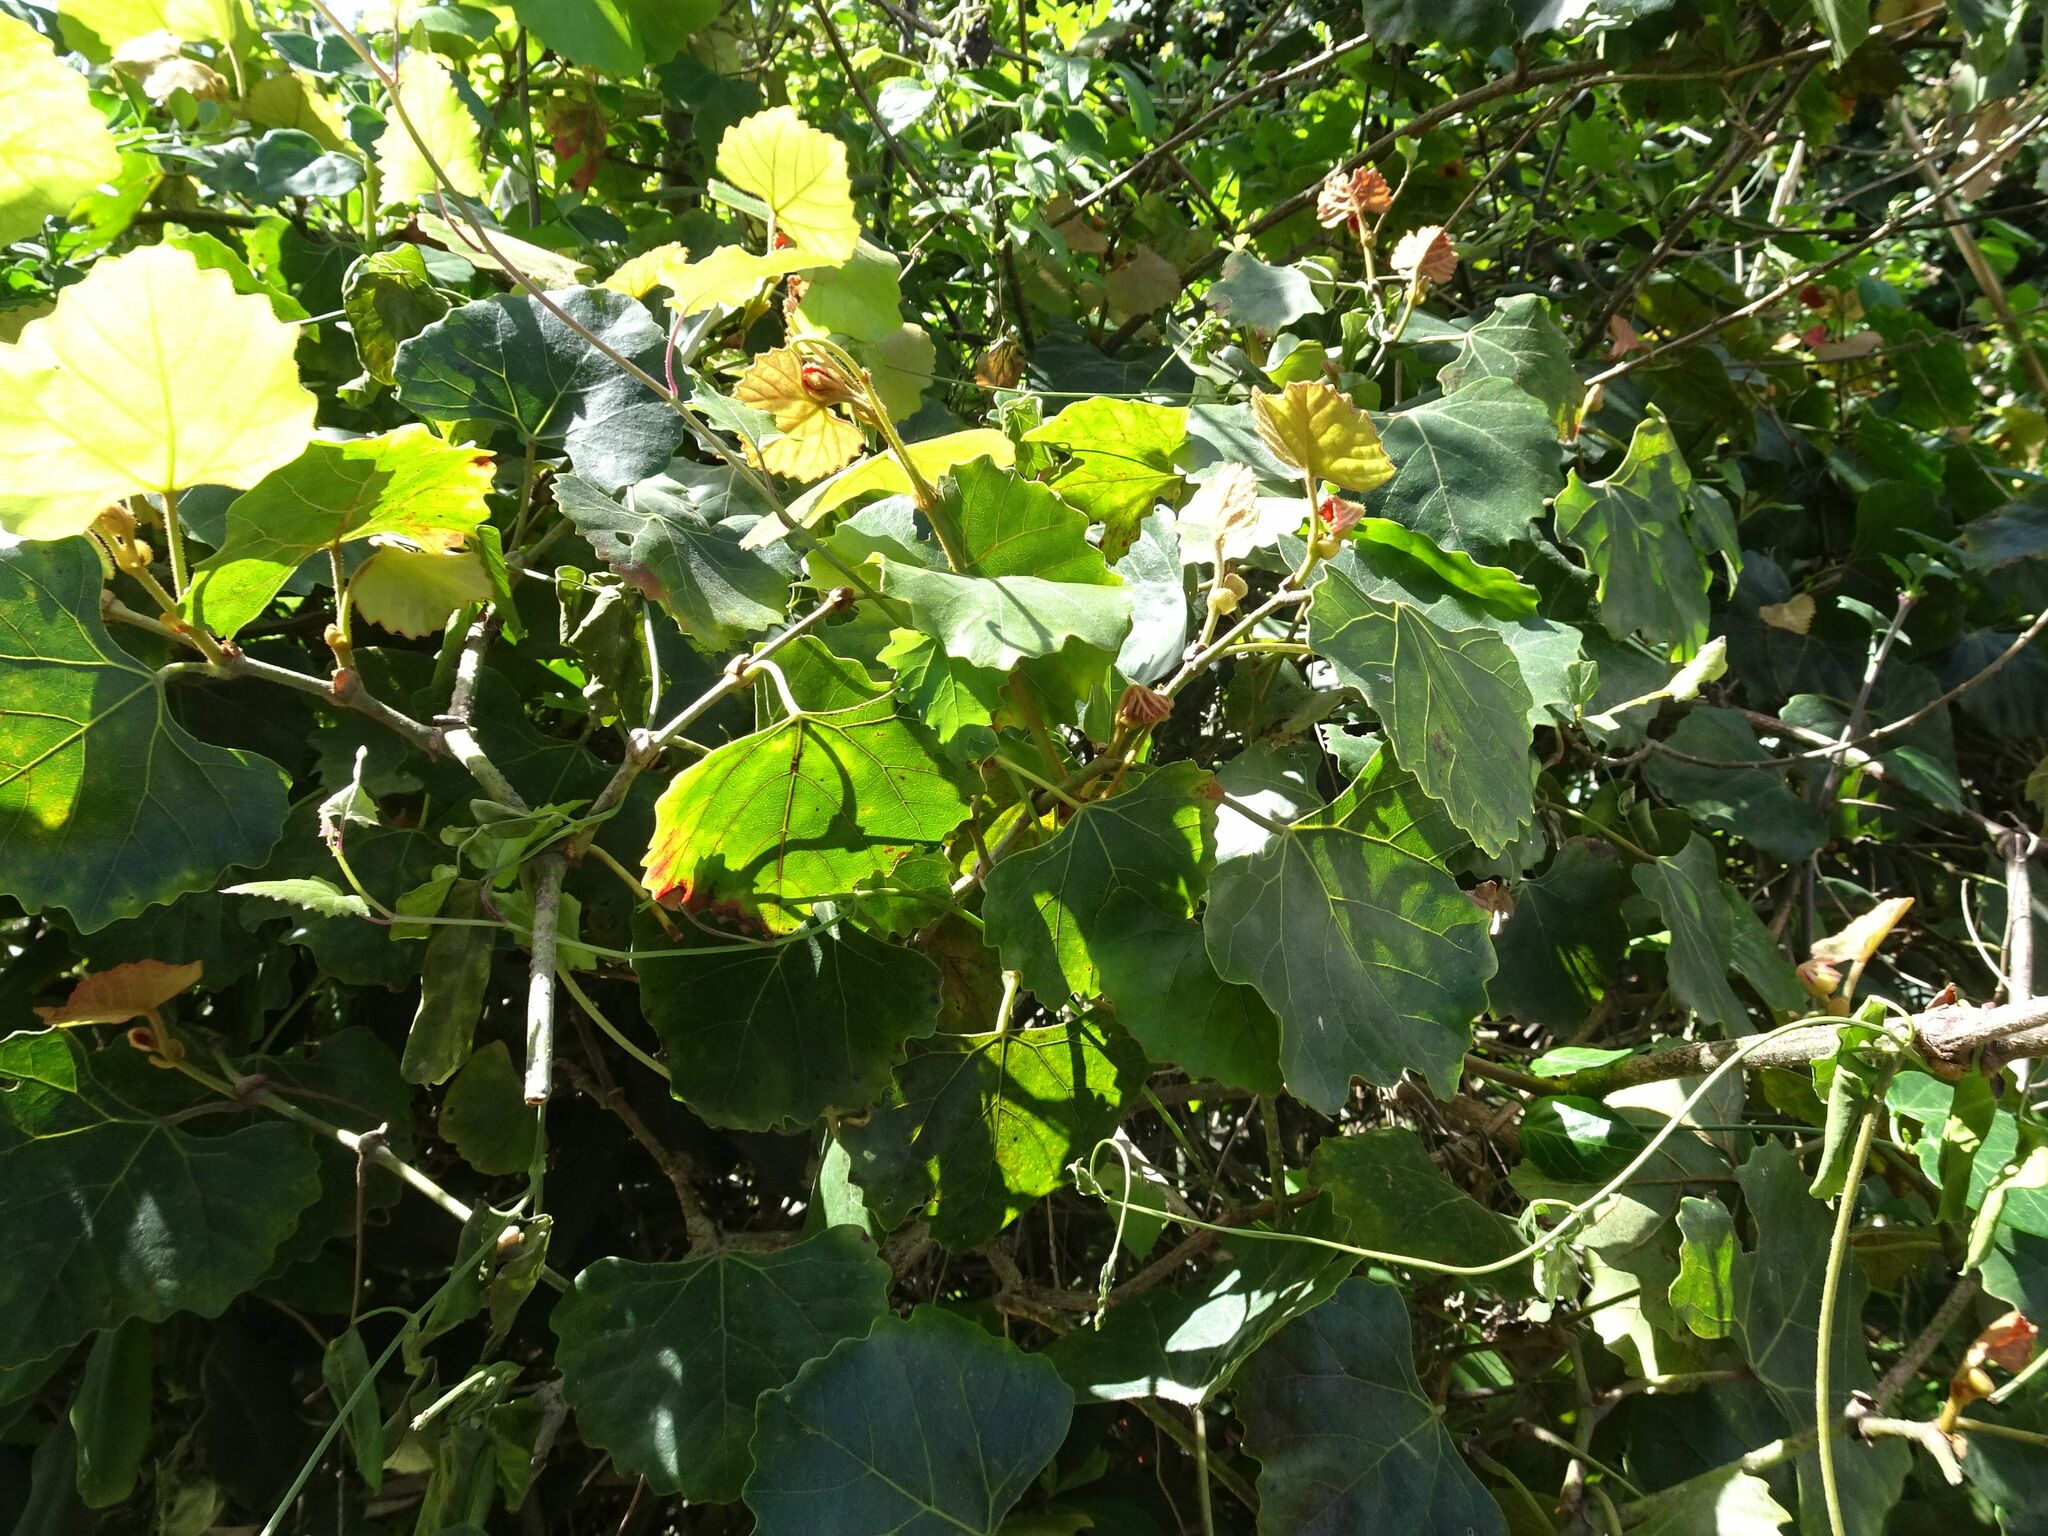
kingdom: Plantae
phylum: Tracheophyta
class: Magnoliopsida
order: Vitales
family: Vitaceae
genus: Rhoicissus
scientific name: Rhoicissus tomentosa
